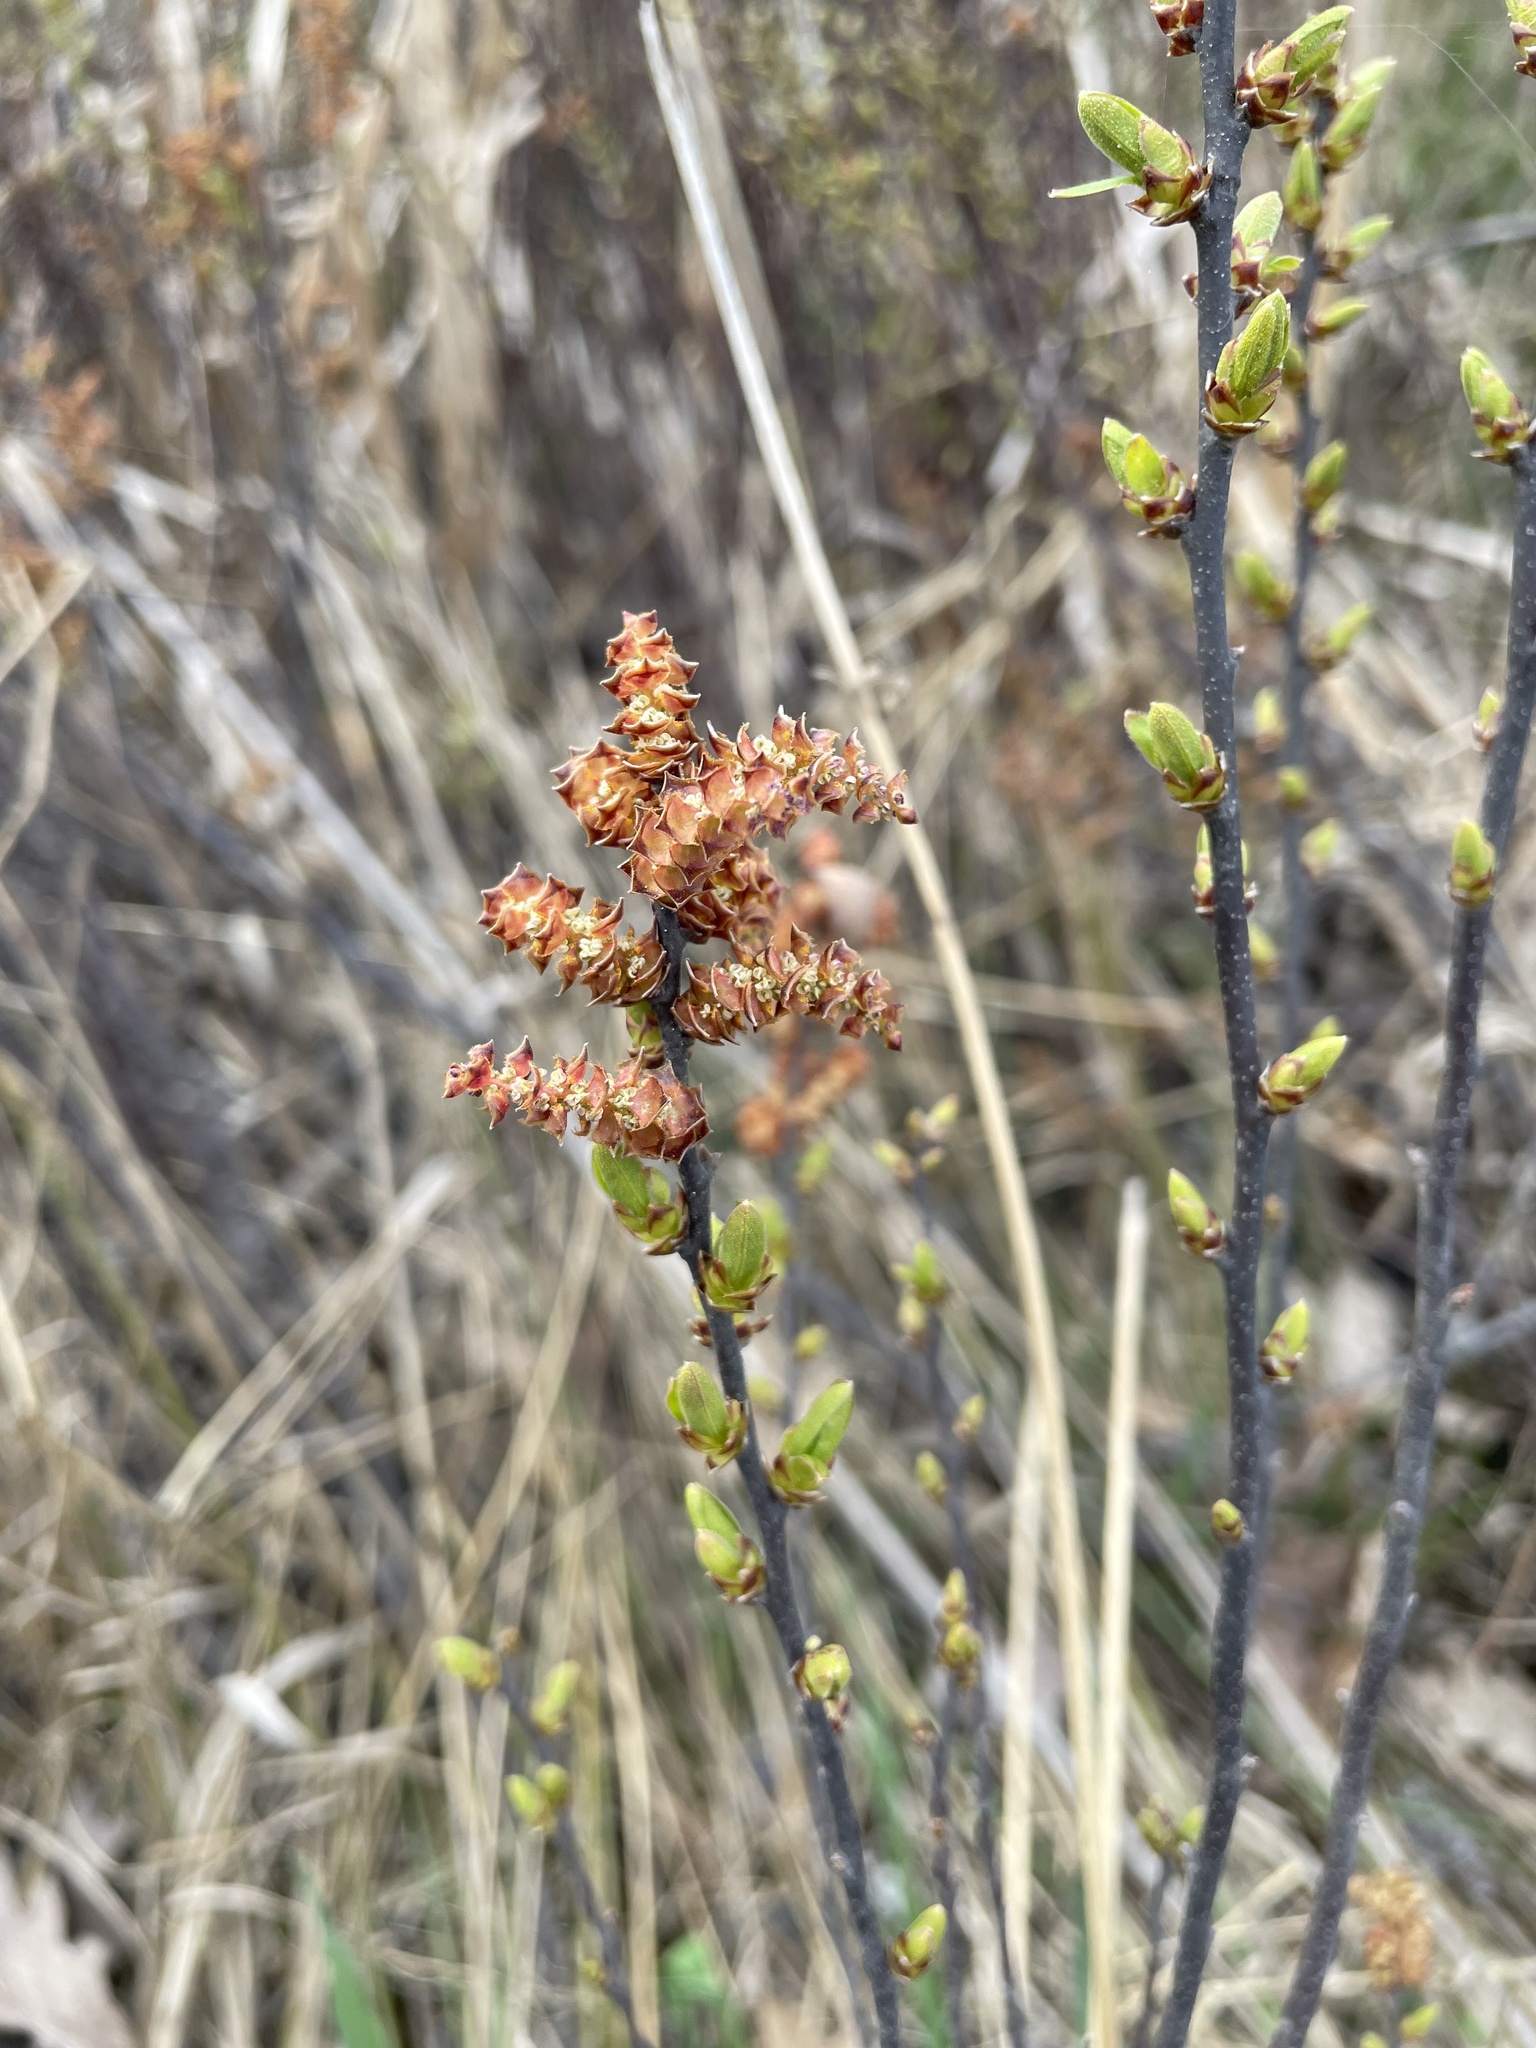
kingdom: Plantae
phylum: Tracheophyta
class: Magnoliopsida
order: Fagales
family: Myricaceae
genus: Myrica
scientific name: Myrica gale
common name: Sweet gale
